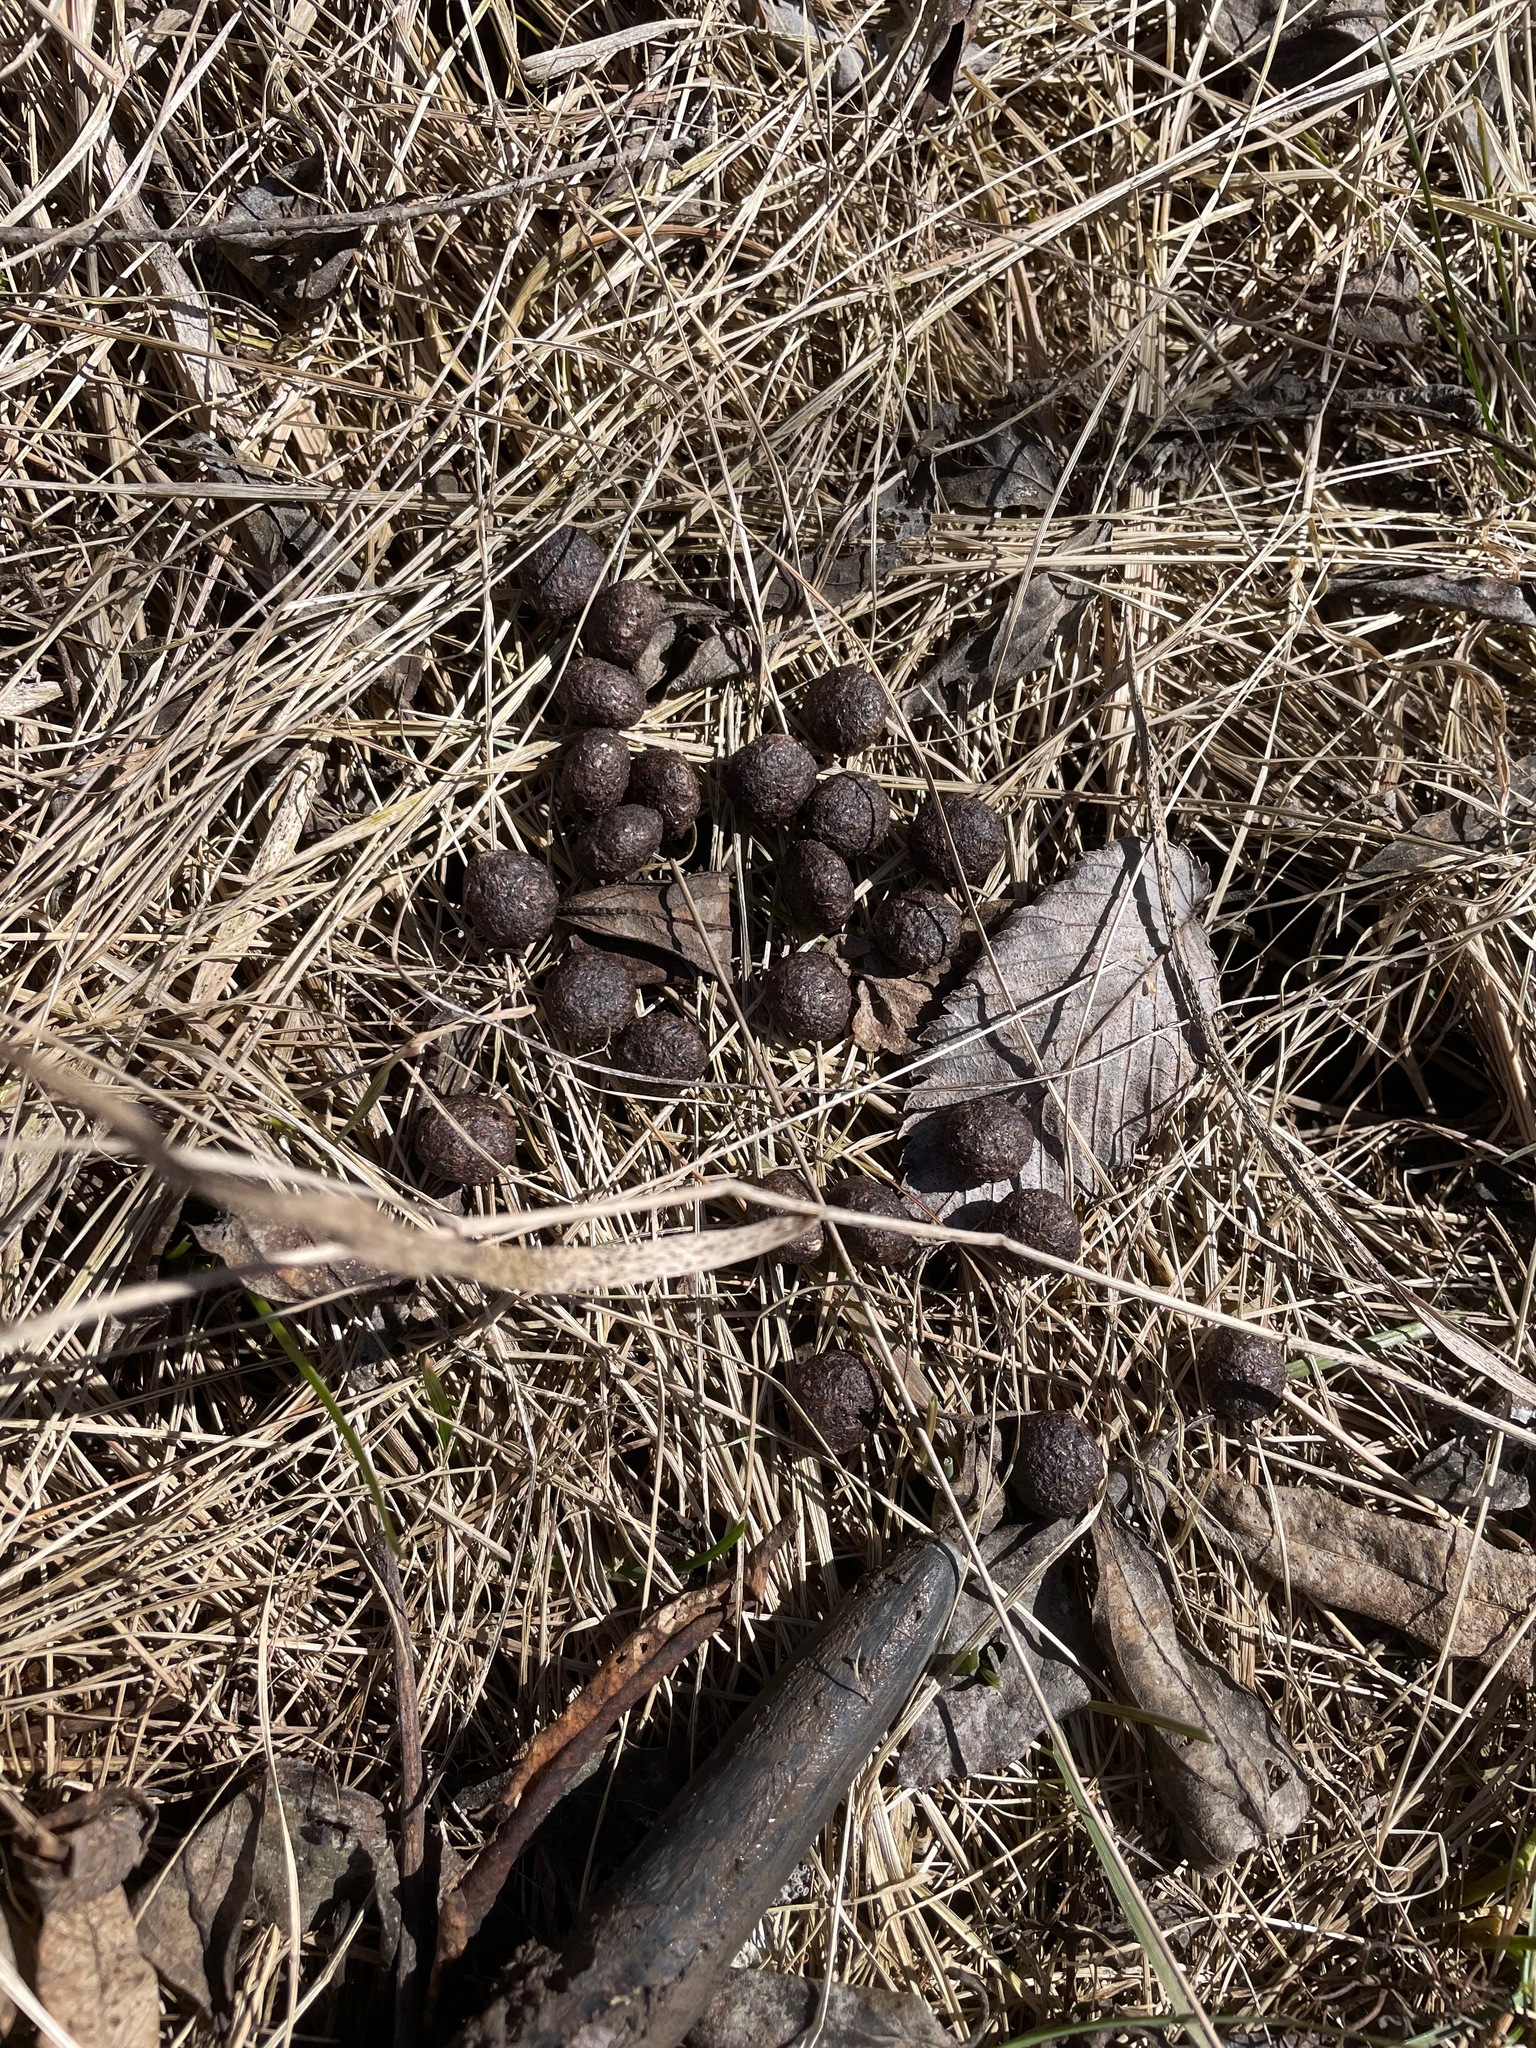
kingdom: Animalia
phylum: Chordata
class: Mammalia
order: Artiodactyla
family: Cervidae
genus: Odocoileus
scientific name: Odocoileus virginianus
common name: White-tailed deer
